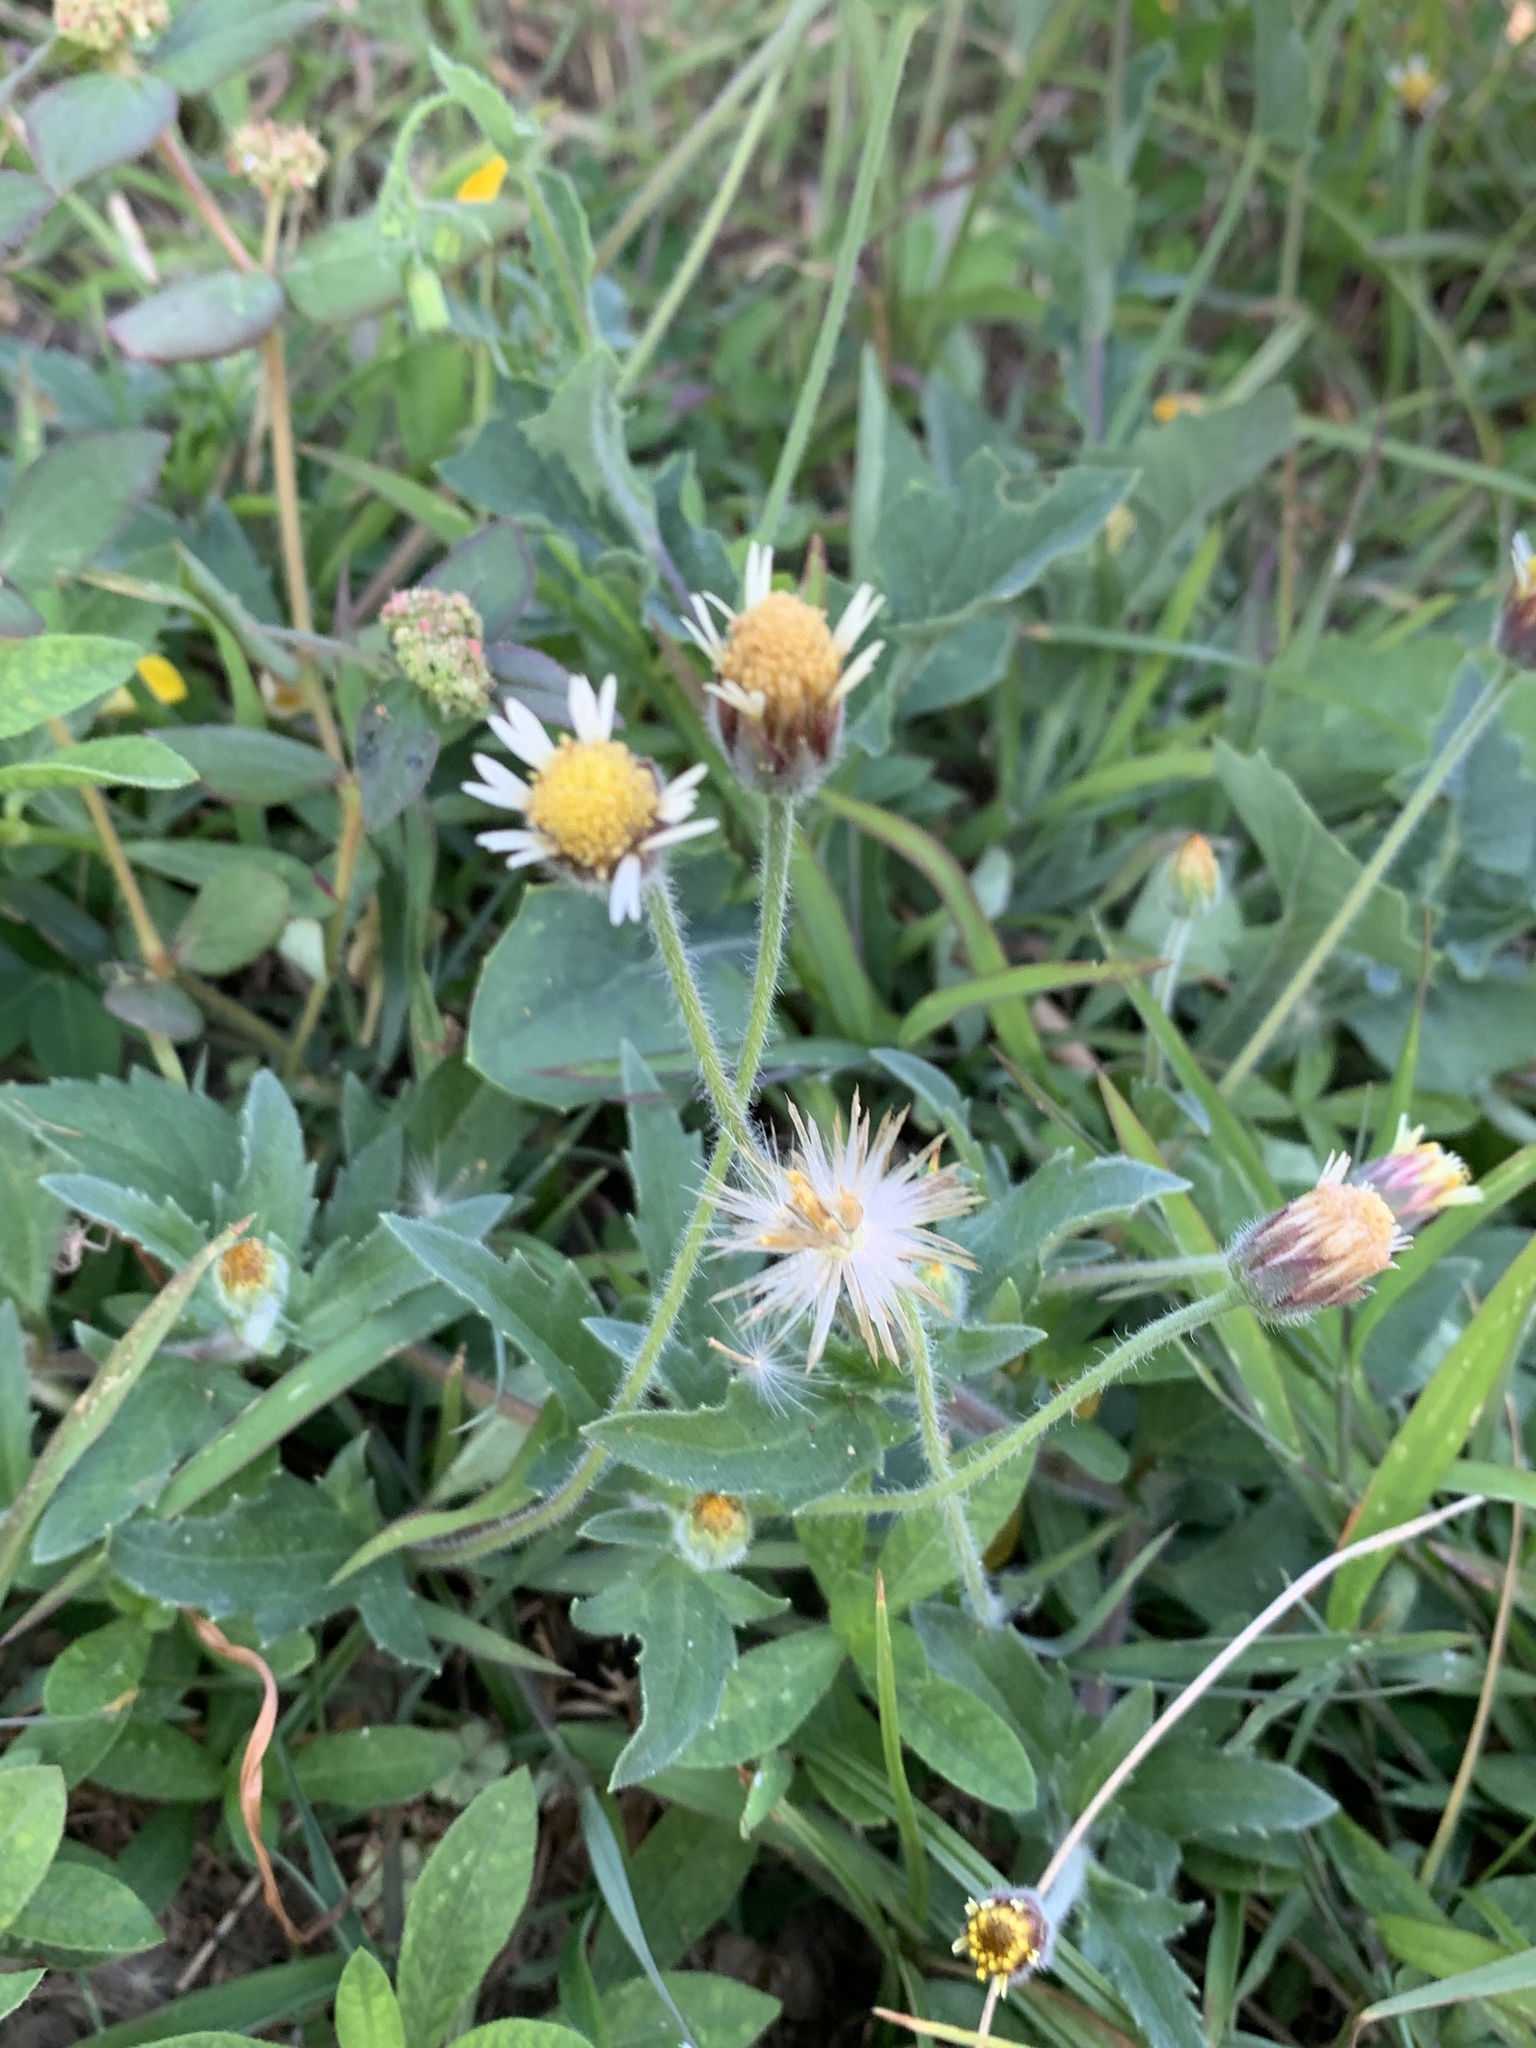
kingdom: Plantae
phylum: Tracheophyta
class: Magnoliopsida
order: Asterales
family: Asteraceae
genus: Tridax
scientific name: Tridax procumbens
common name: Coatbuttons
